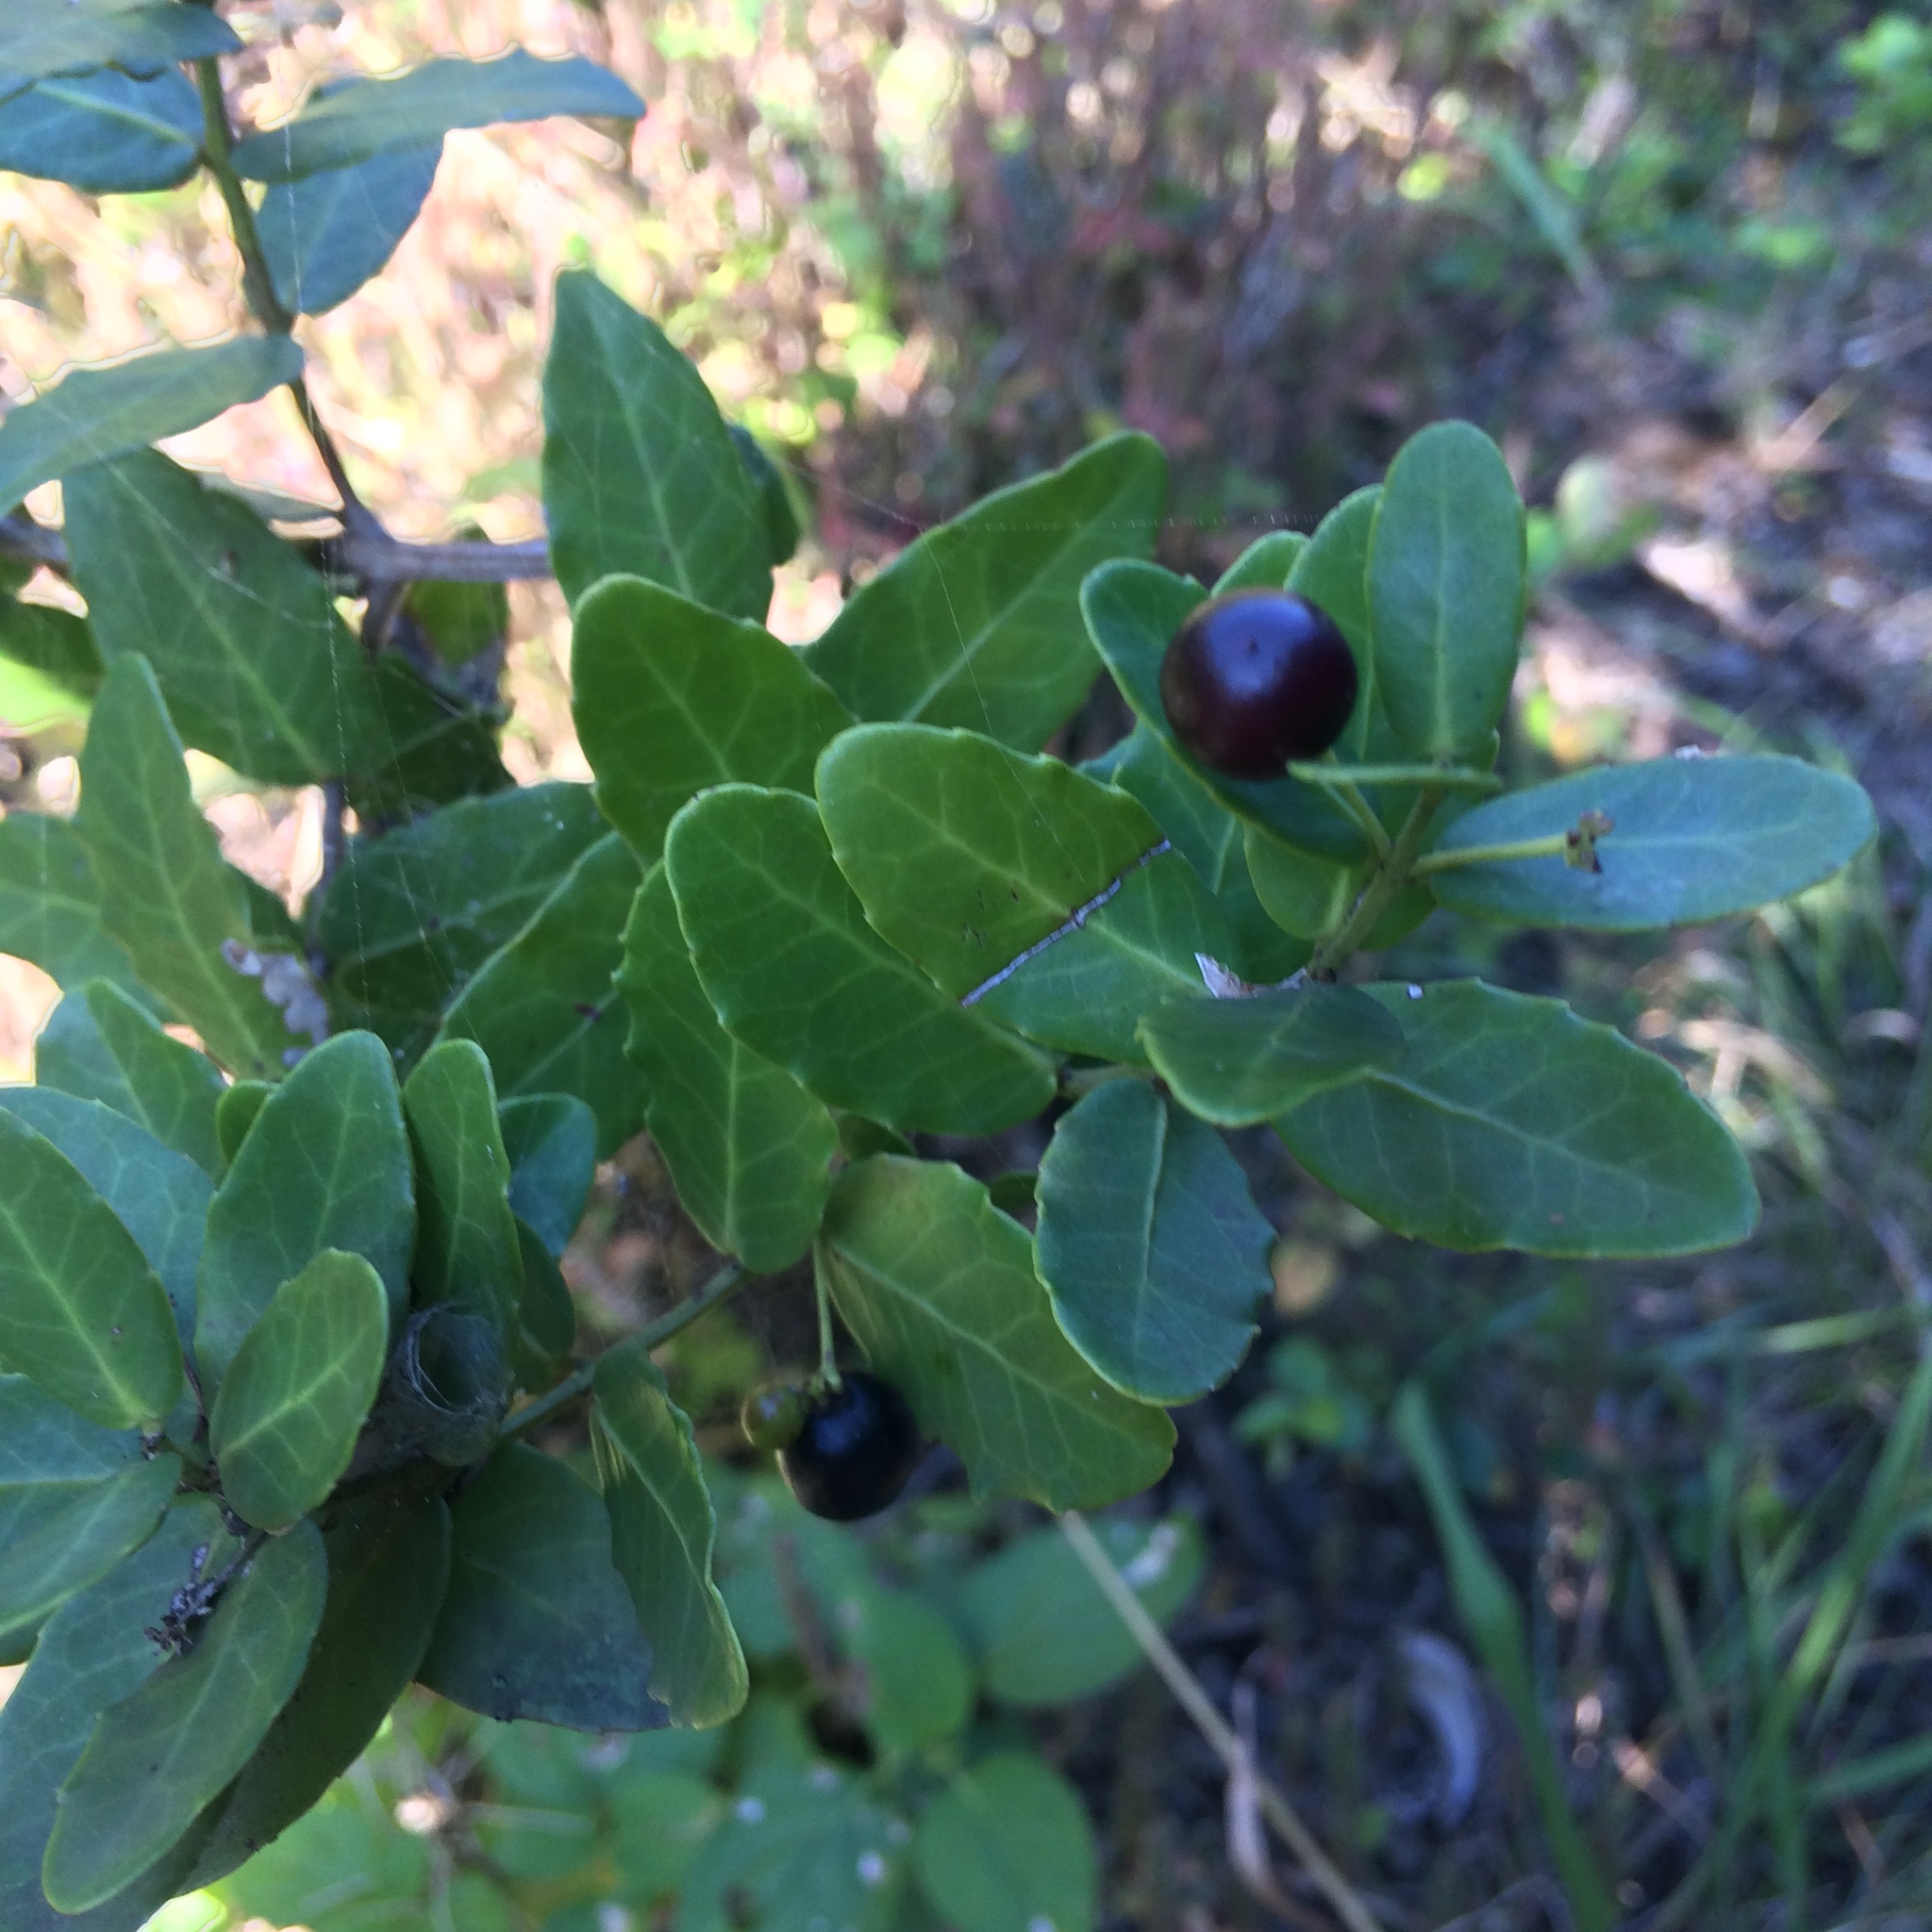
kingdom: Plantae
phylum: Tracheophyta
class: Magnoliopsida
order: Celastrales
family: Celastraceae
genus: Lauridia
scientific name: Lauridia tetragona
